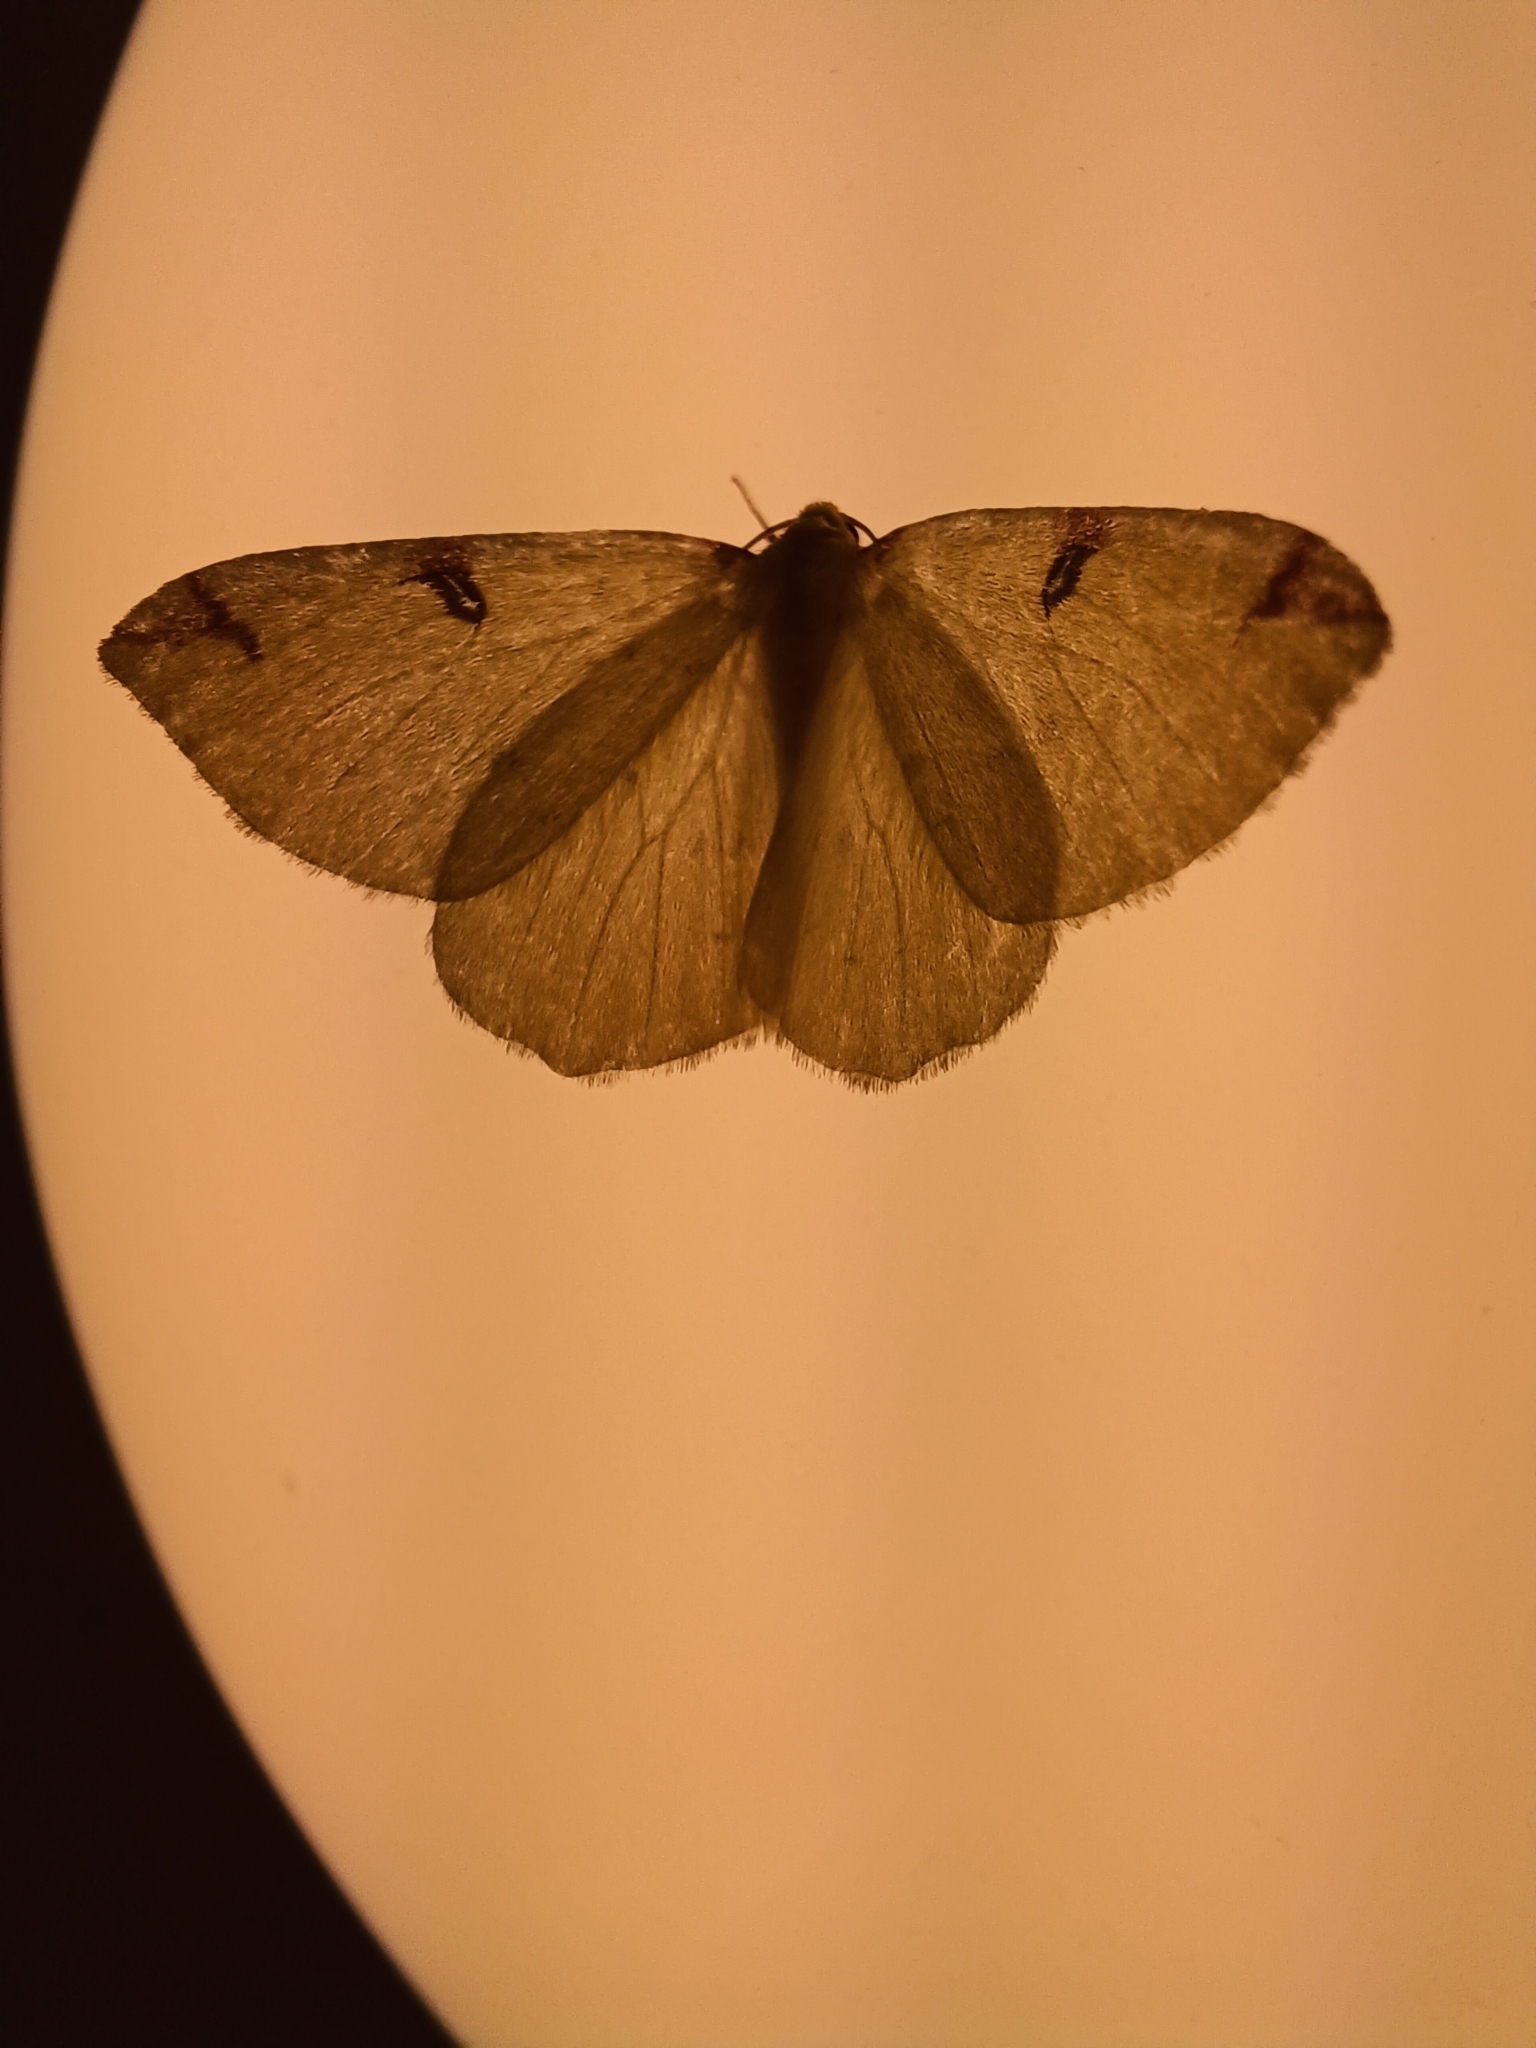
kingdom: Animalia
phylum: Arthropoda
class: Insecta
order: Lepidoptera
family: Geometridae
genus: Opisthograptis
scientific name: Opisthograptis luteolata
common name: Brimstone moth
